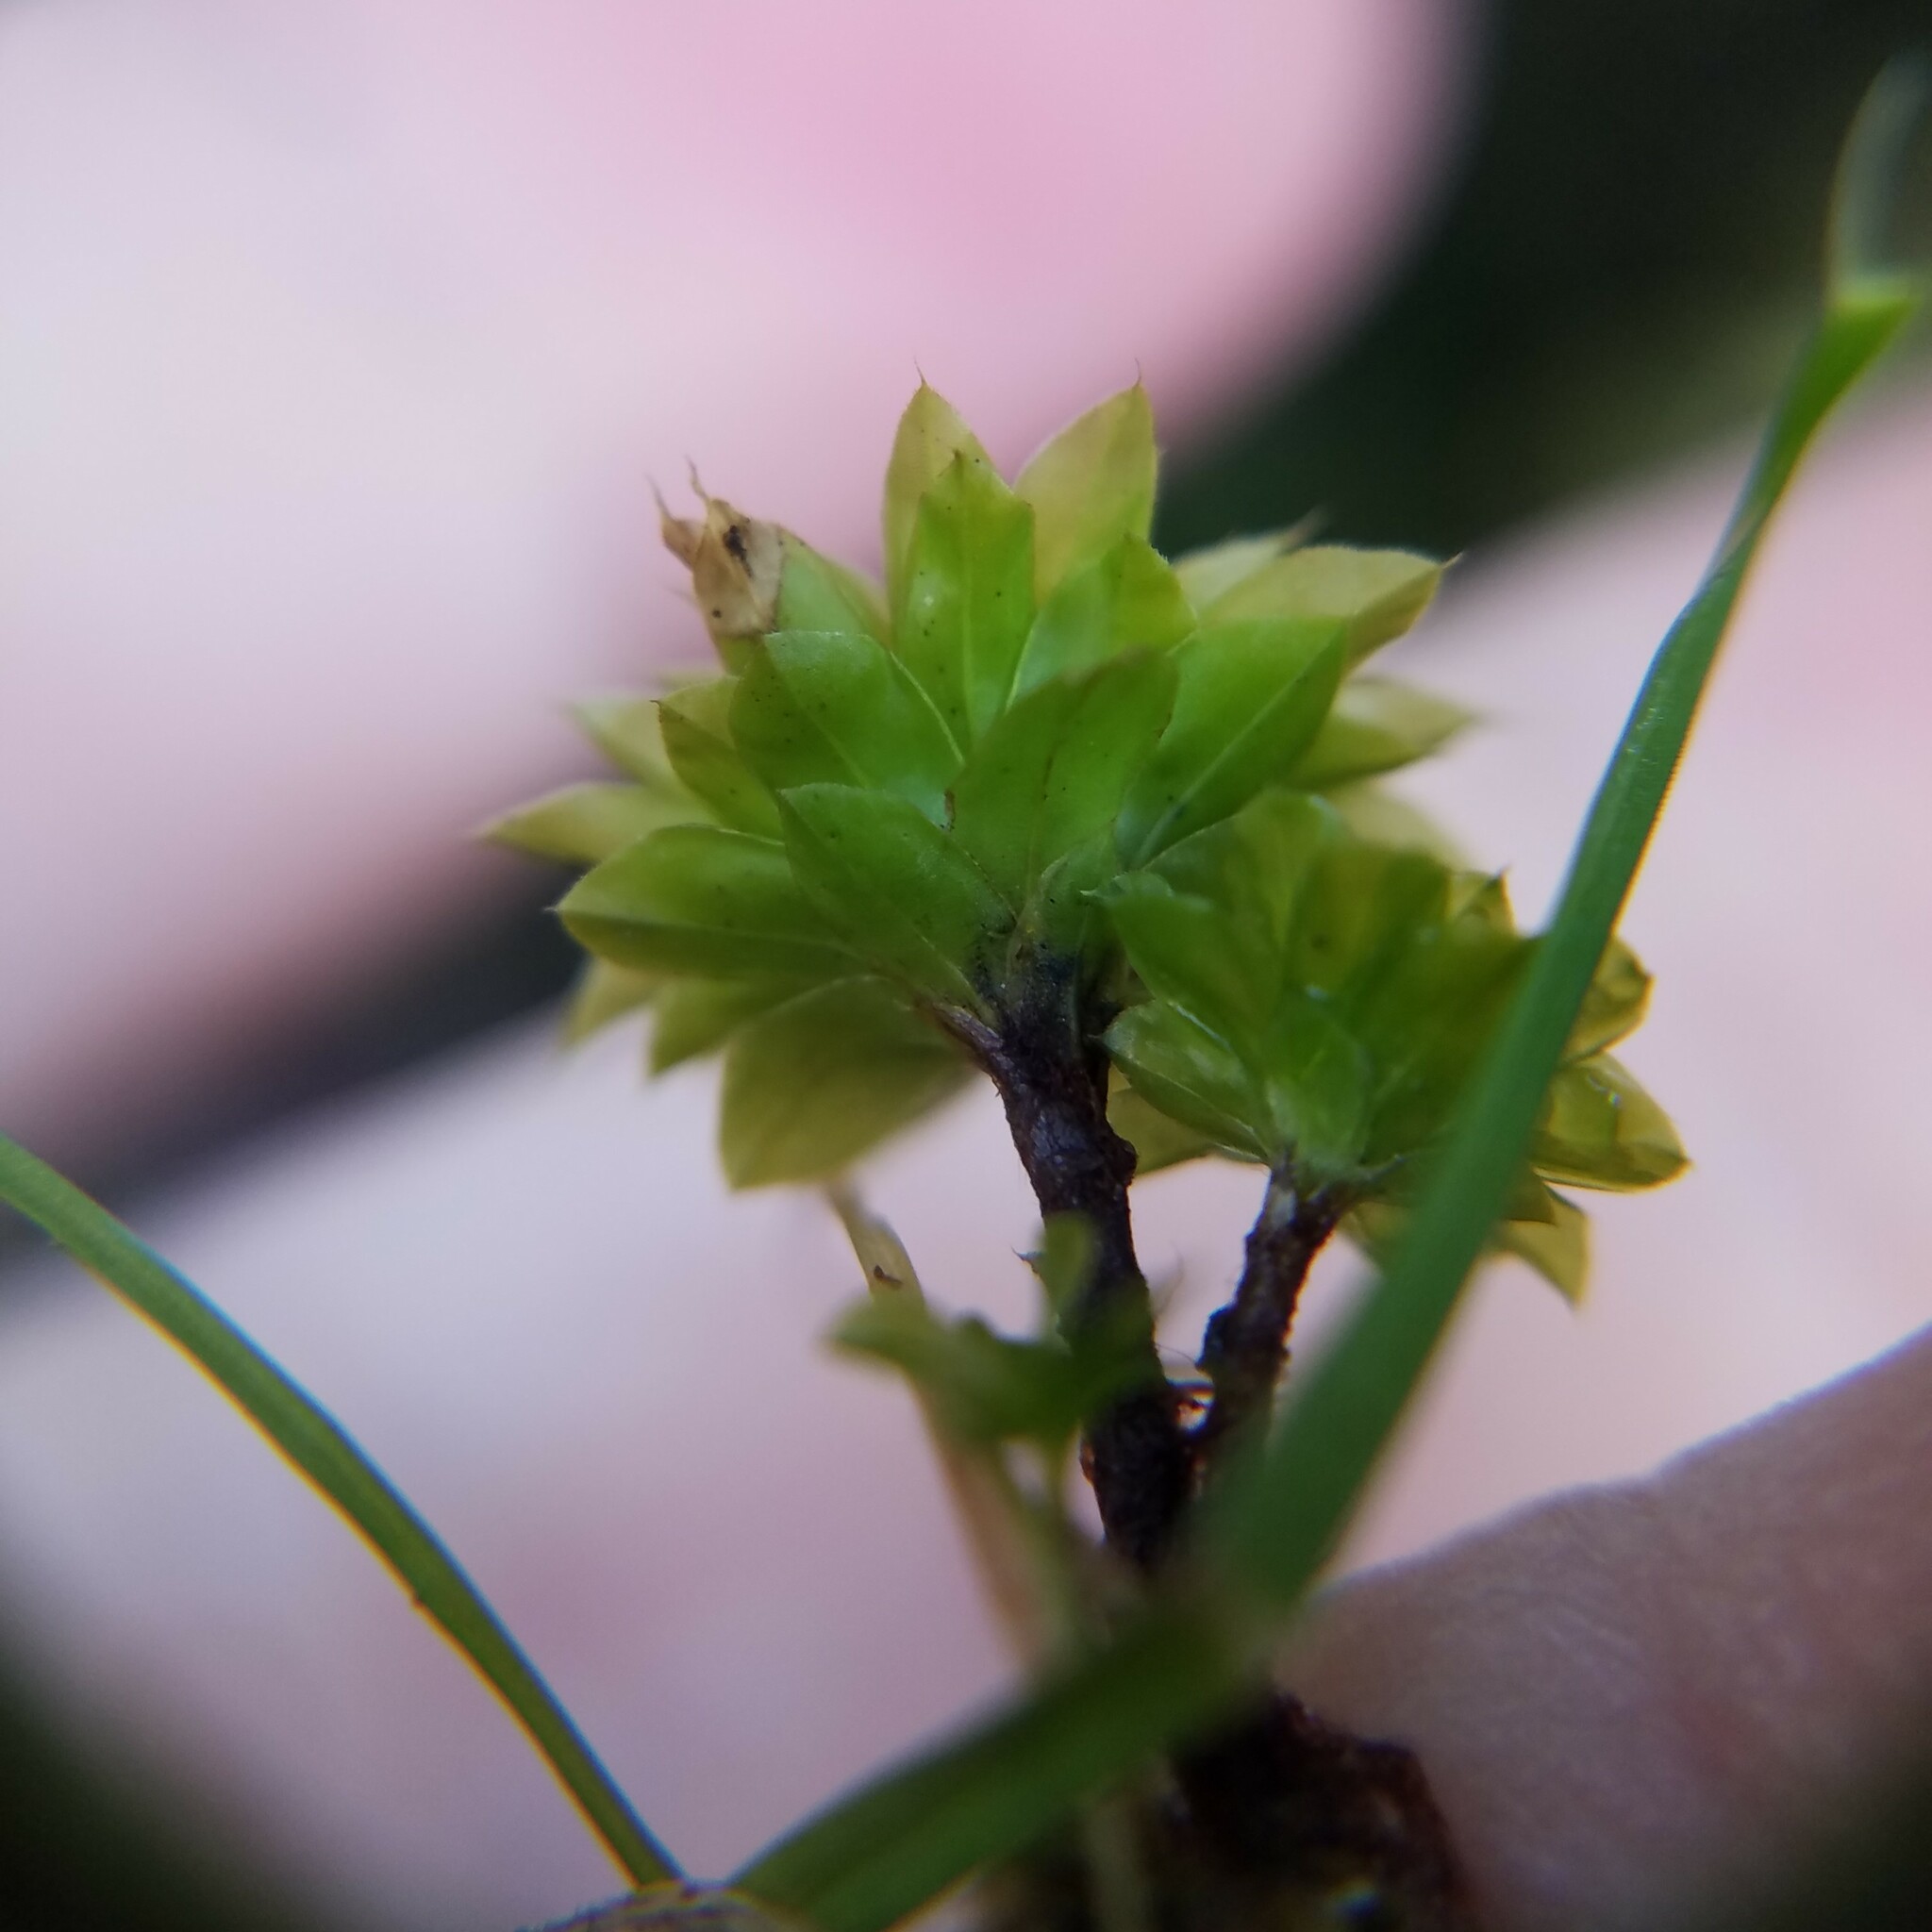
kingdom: Plantae
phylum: Bryophyta
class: Bryopsida
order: Bryales
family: Bryaceae
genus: Rhodobryum
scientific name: Rhodobryum ontariense
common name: Ontario rhodobryum moss
